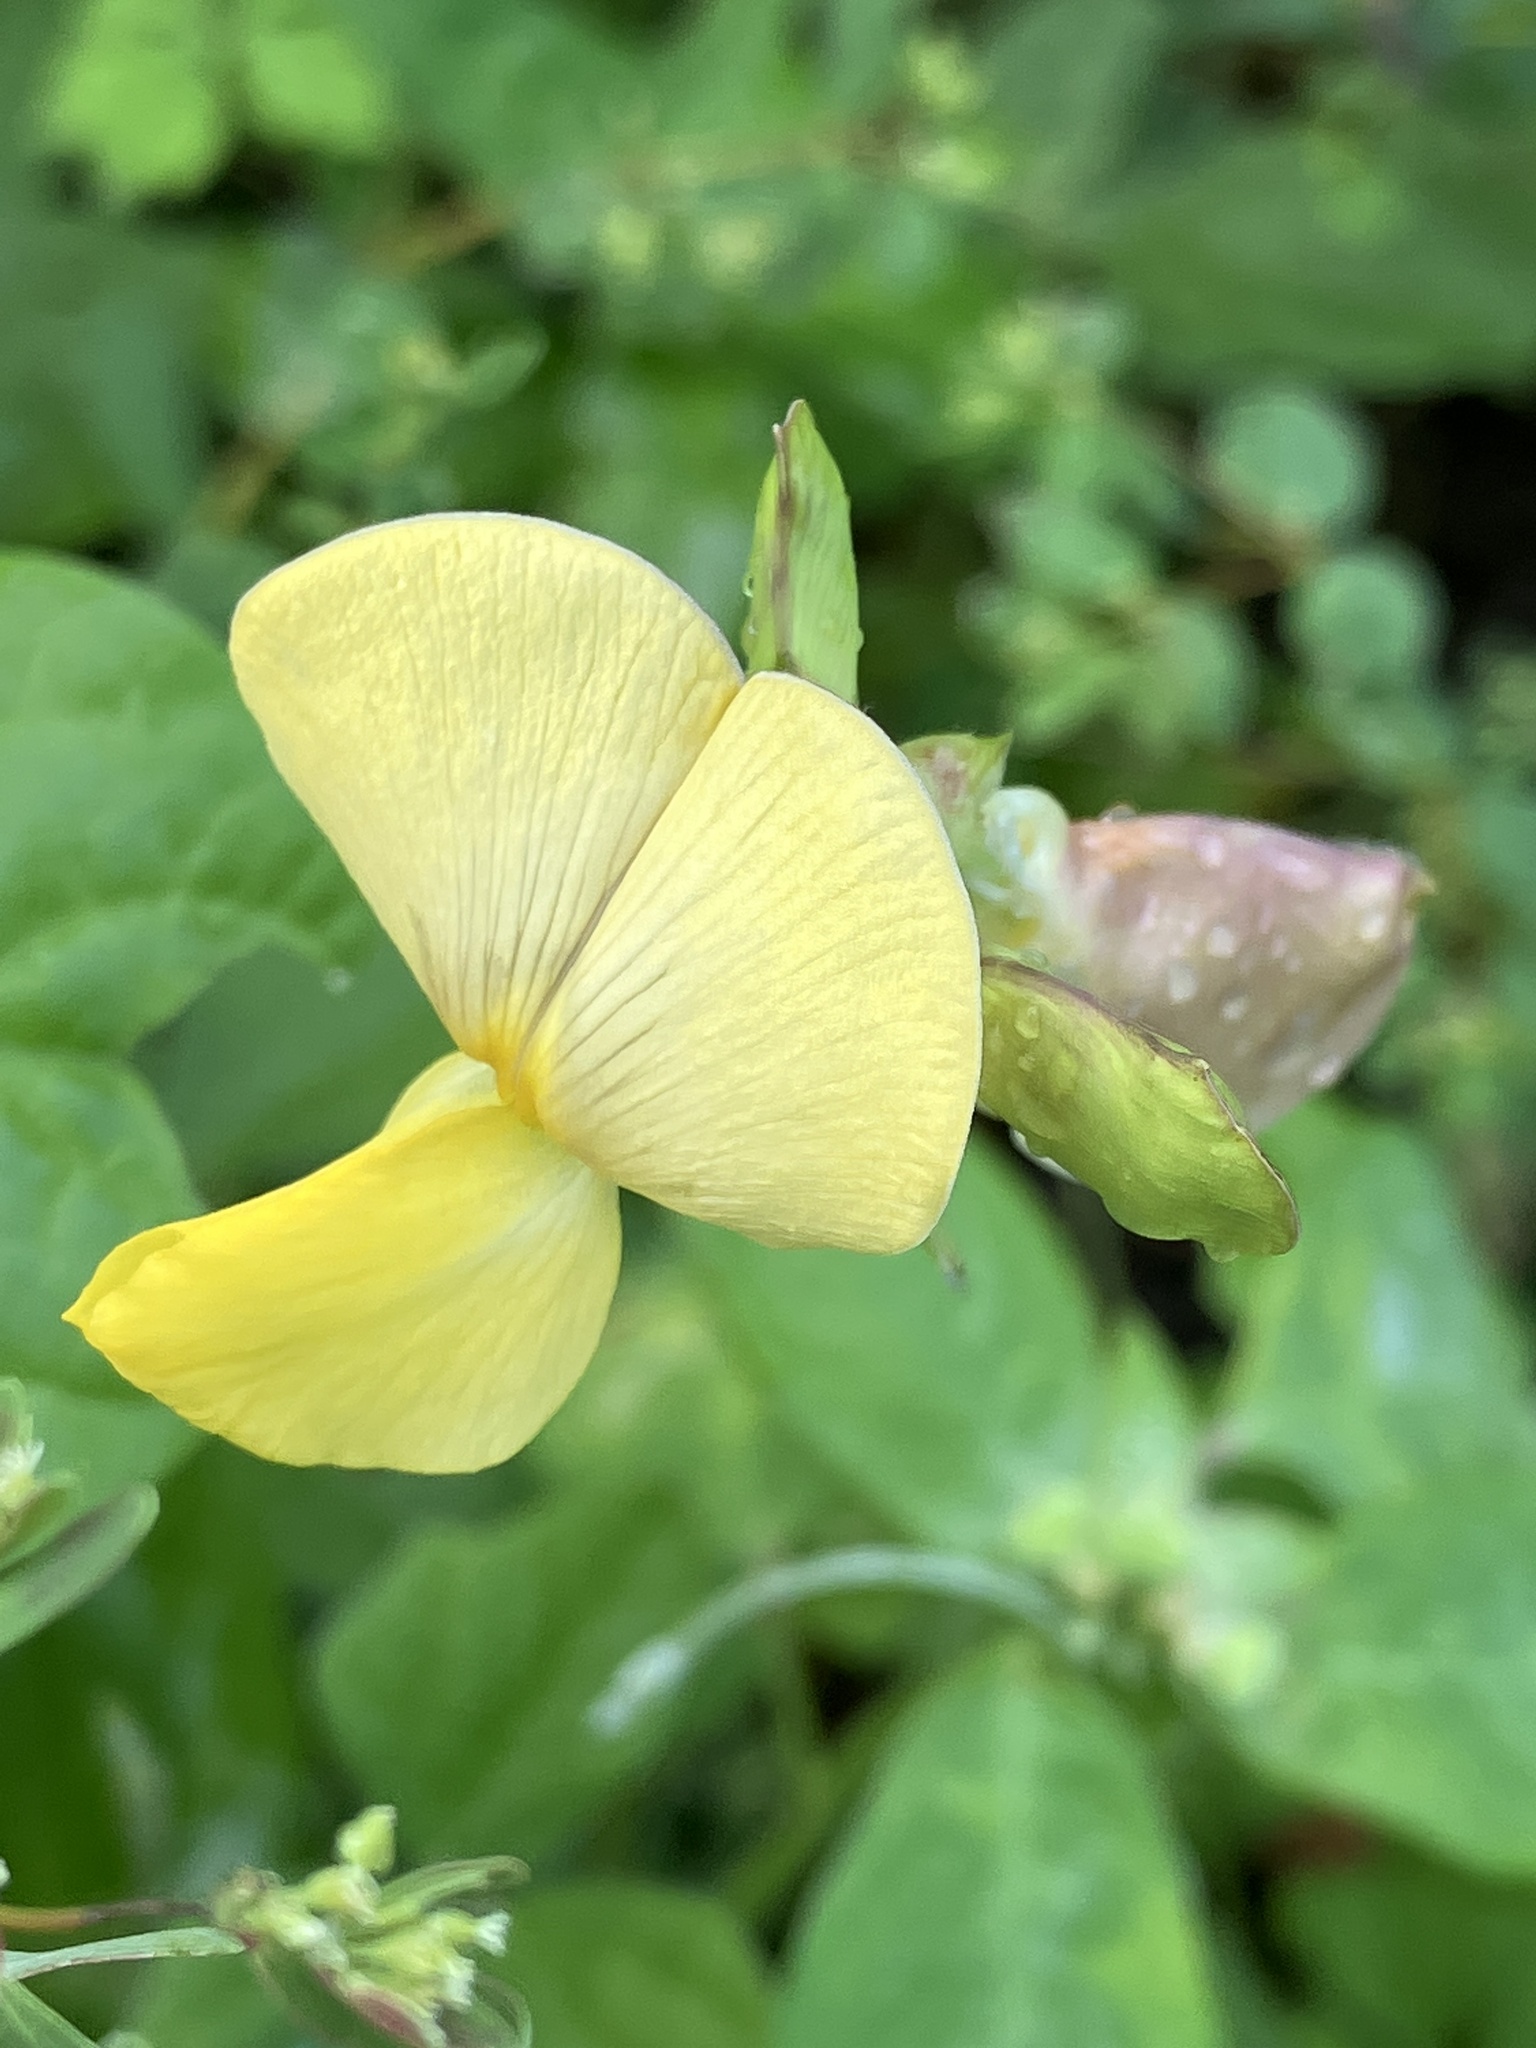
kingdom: Plantae
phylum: Tracheophyta
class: Magnoliopsida
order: Fabales
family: Fabaceae
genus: Vigna
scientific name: Vigna luteola
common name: Hairypod cowpea
